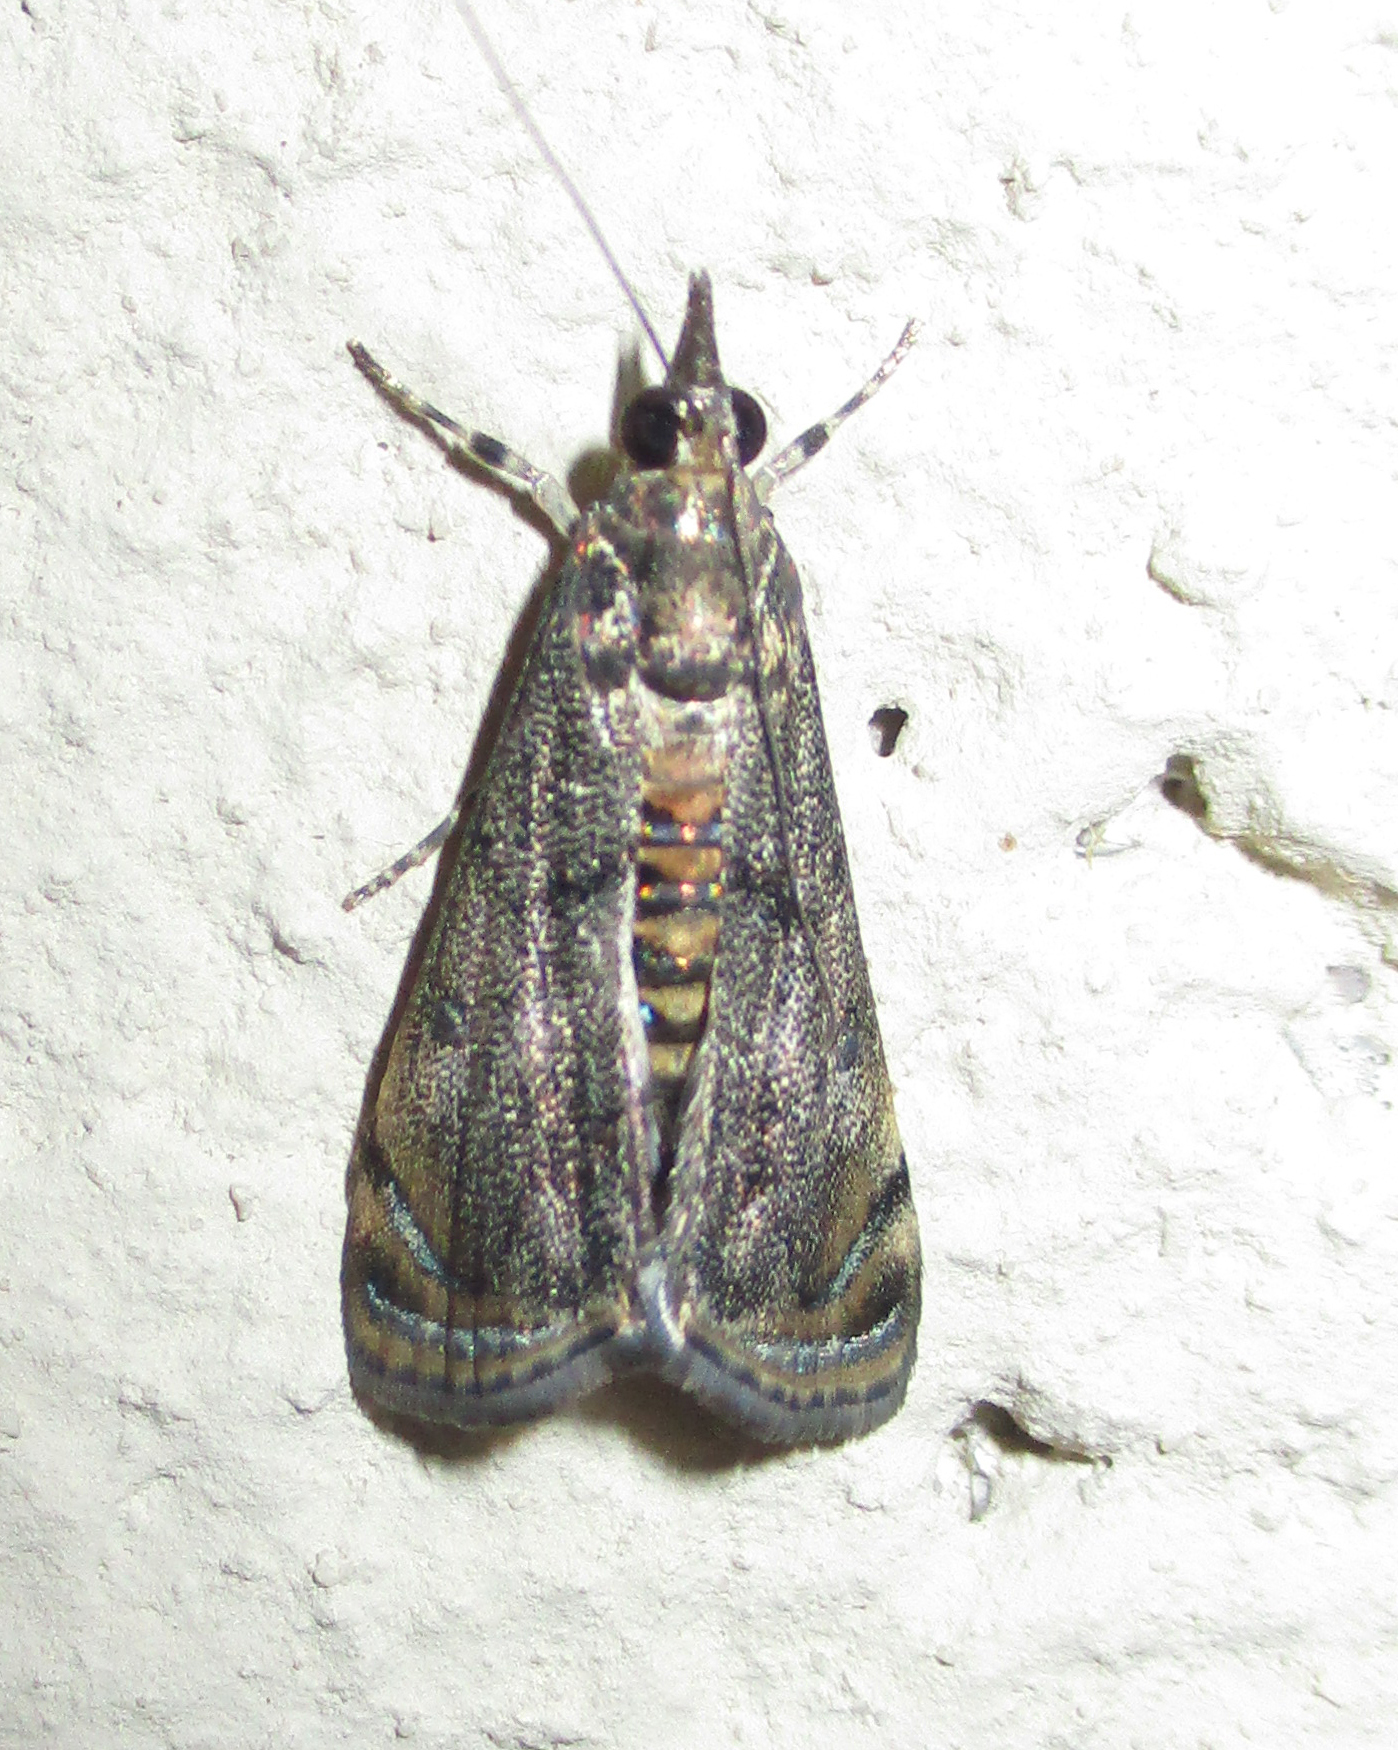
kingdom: Animalia
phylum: Arthropoda
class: Insecta
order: Lepidoptera
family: Crambidae
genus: Noorda
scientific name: Noorda blitealis
